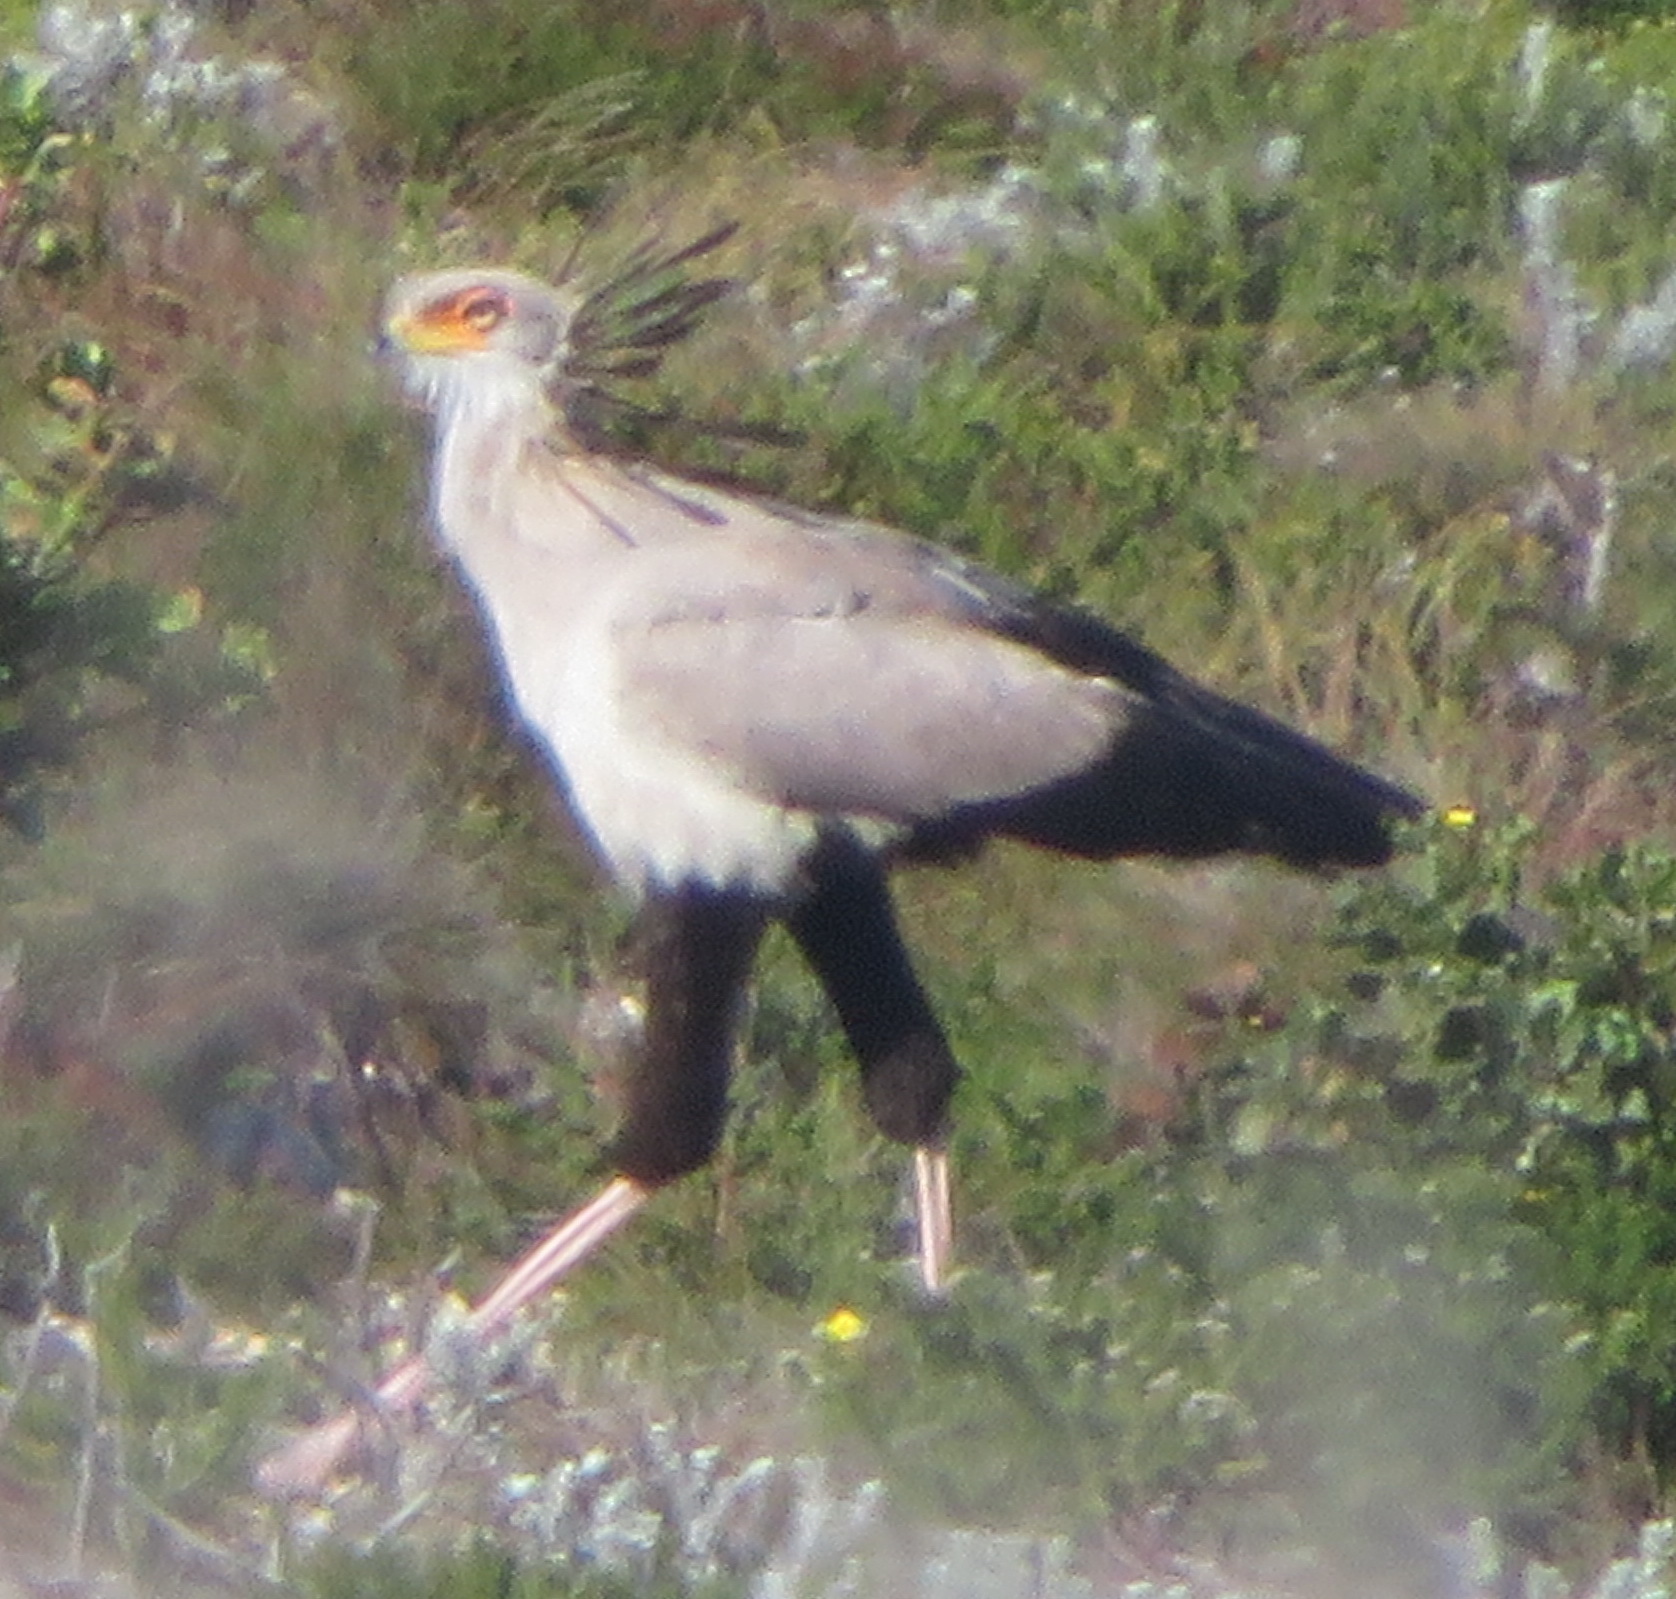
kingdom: Animalia
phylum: Chordata
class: Aves
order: Accipitriformes
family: Sagittariidae
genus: Sagittarius
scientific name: Sagittarius serpentarius
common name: Secretarybird
